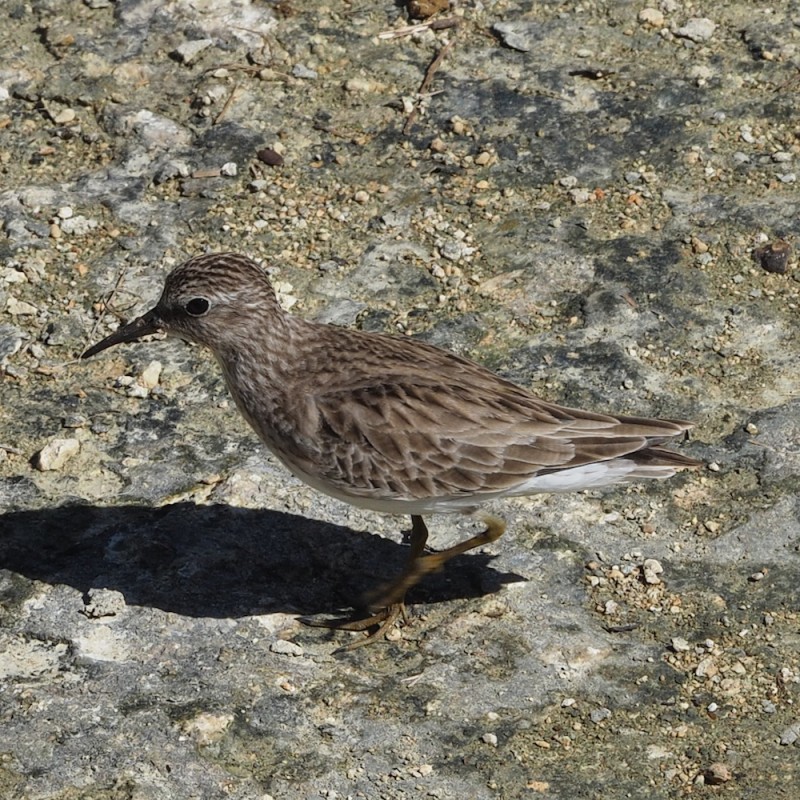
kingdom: Animalia
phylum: Chordata
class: Aves
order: Charadriiformes
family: Scolopacidae
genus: Calidris
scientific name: Calidris minutilla
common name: Least sandpiper
